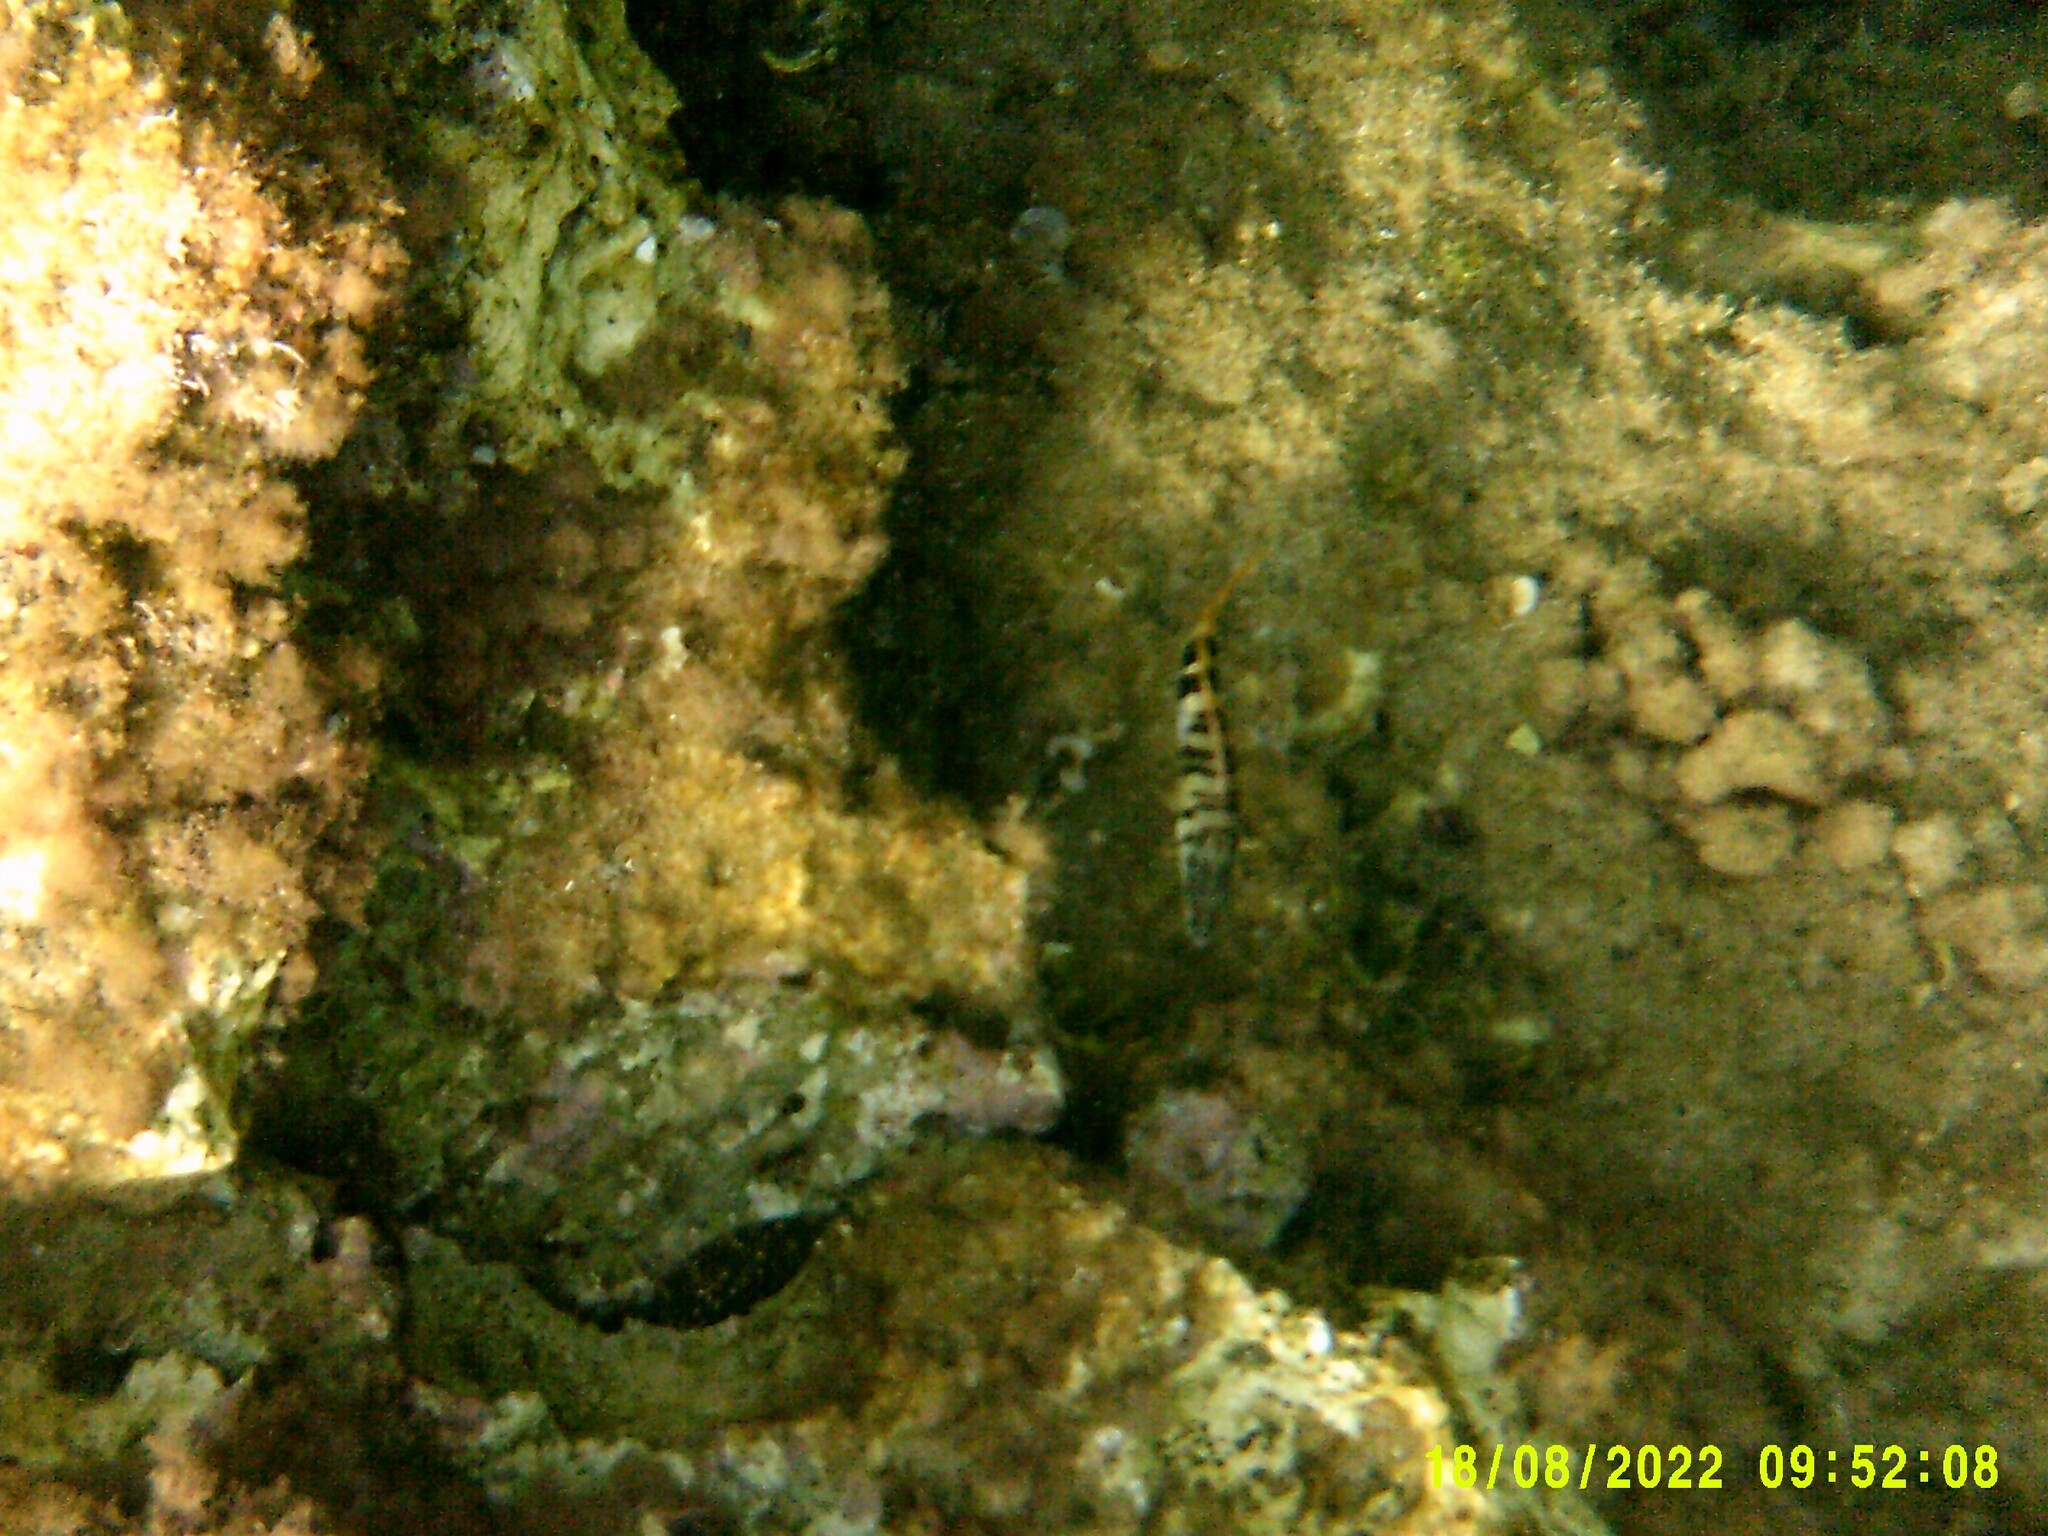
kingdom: Animalia
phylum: Chordata
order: Perciformes
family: Serranidae
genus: Serranus
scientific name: Serranus scriba
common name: Painted comber
